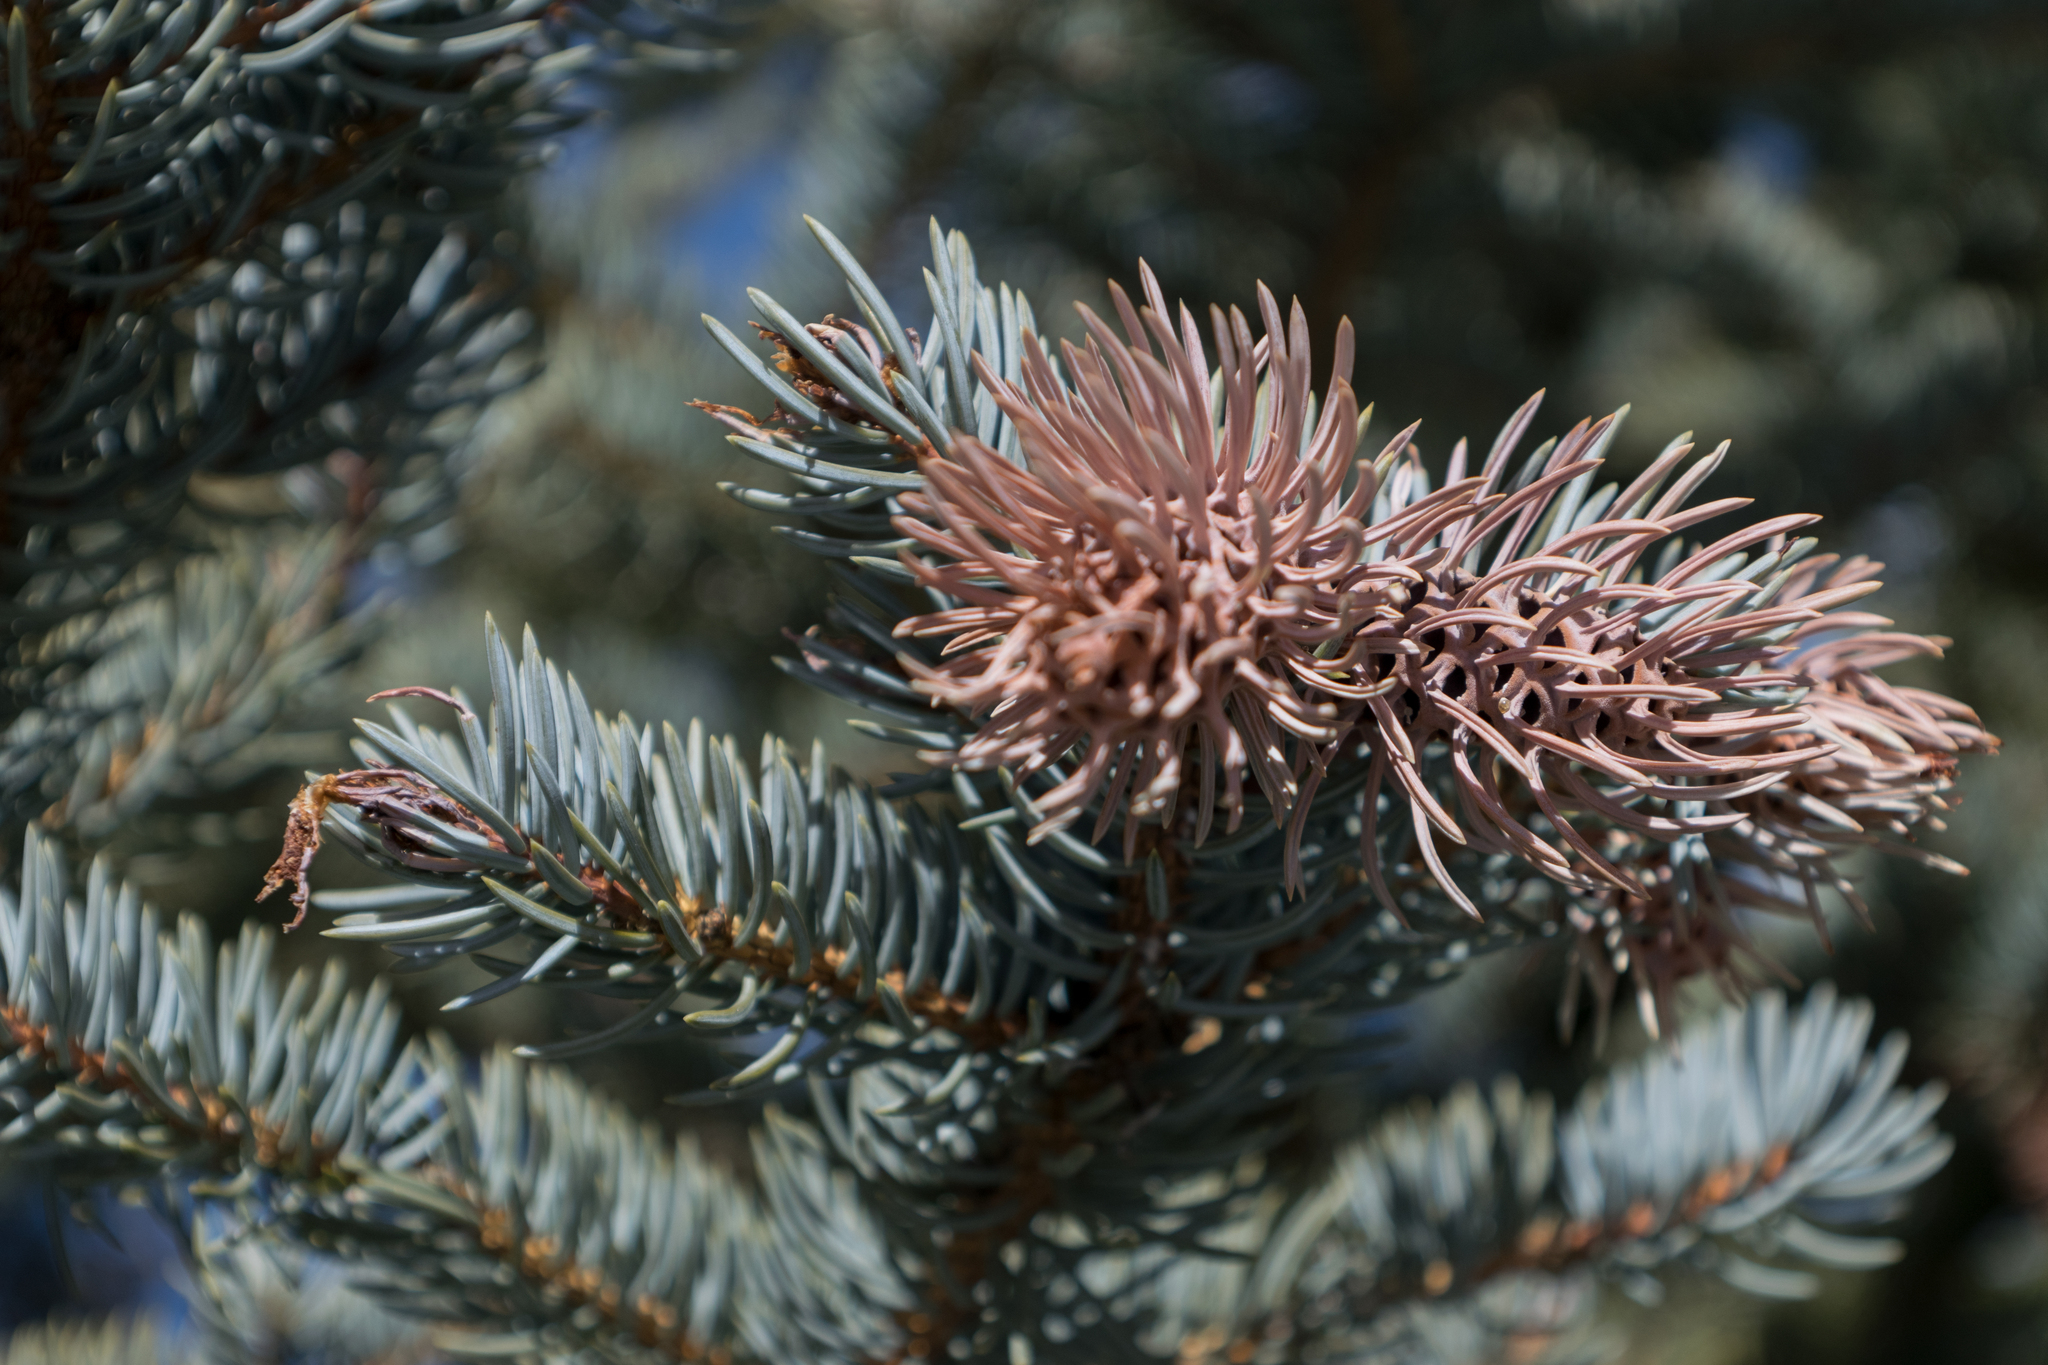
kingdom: Animalia
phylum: Arthropoda
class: Insecta
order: Hemiptera
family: Adelgidae
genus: Adelges
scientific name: Adelges cooleyi
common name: Cooley spruce gall adelgid
